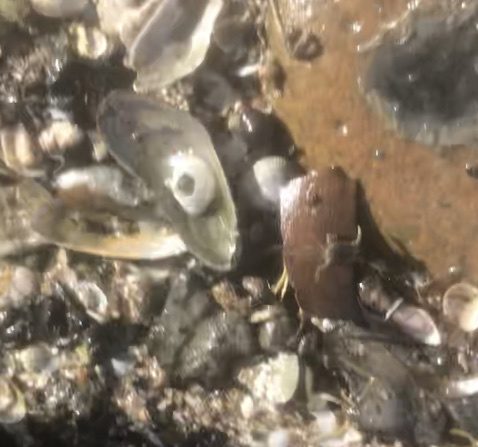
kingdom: Animalia
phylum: Mollusca
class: Bivalvia
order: Mytilida
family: Mytilidae
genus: Geukensia
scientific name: Geukensia demissa
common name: Ribbed mussel
